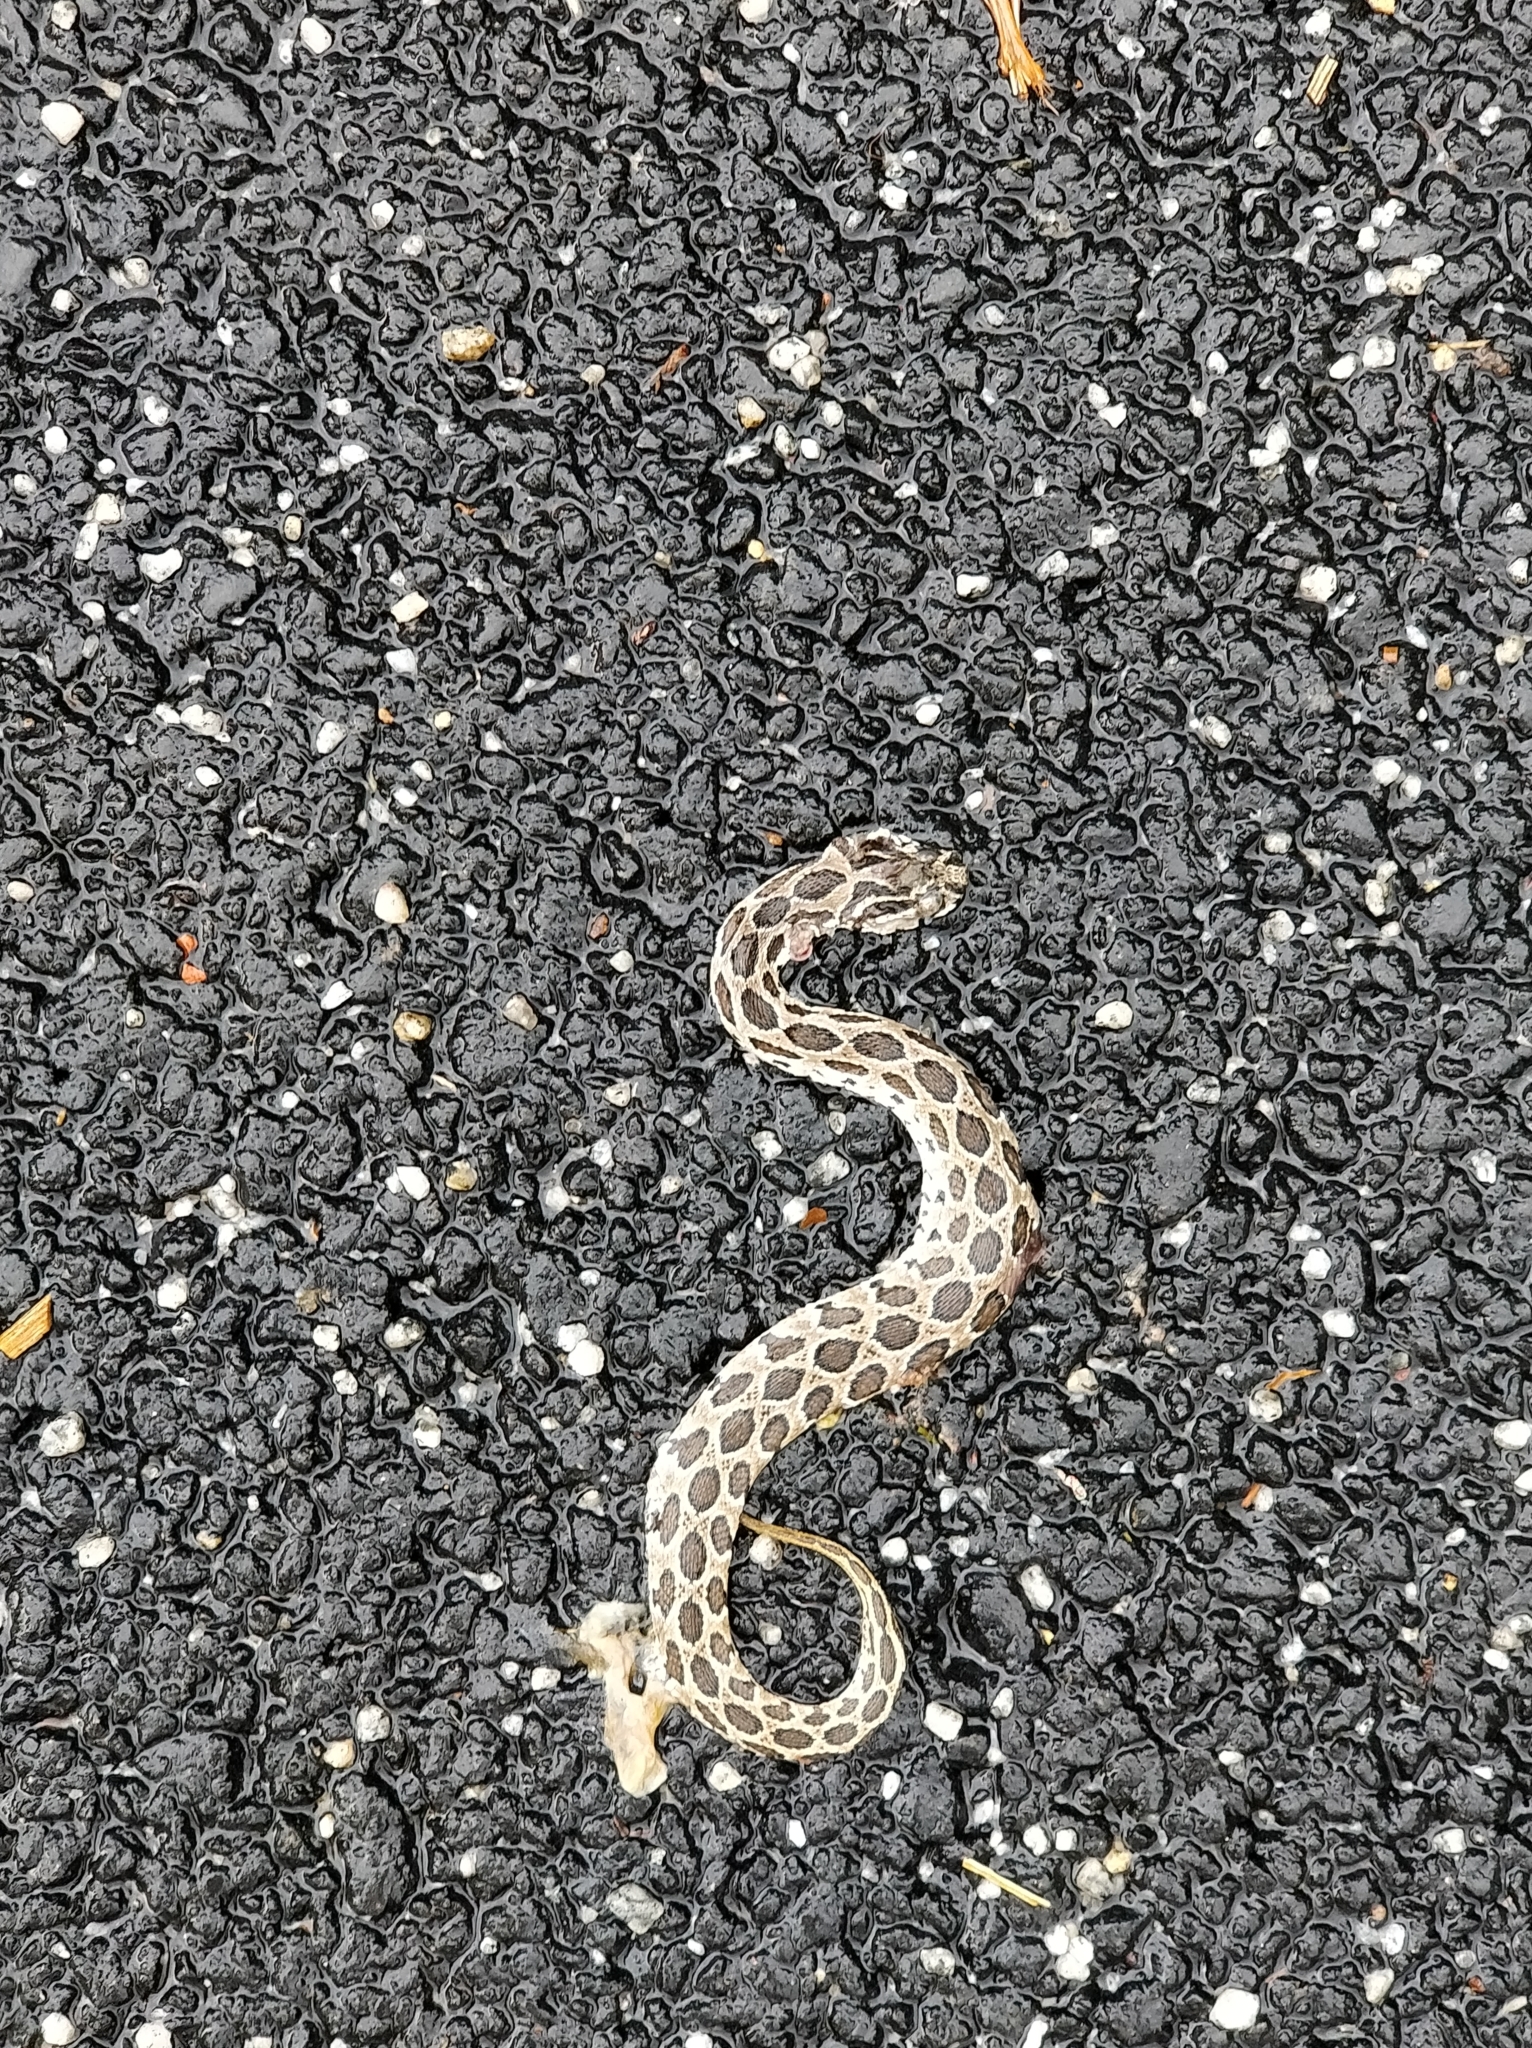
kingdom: Animalia
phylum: Chordata
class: Squamata
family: Viperidae
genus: Daboia
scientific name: Daboia russelii
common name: Western russel’s viper
